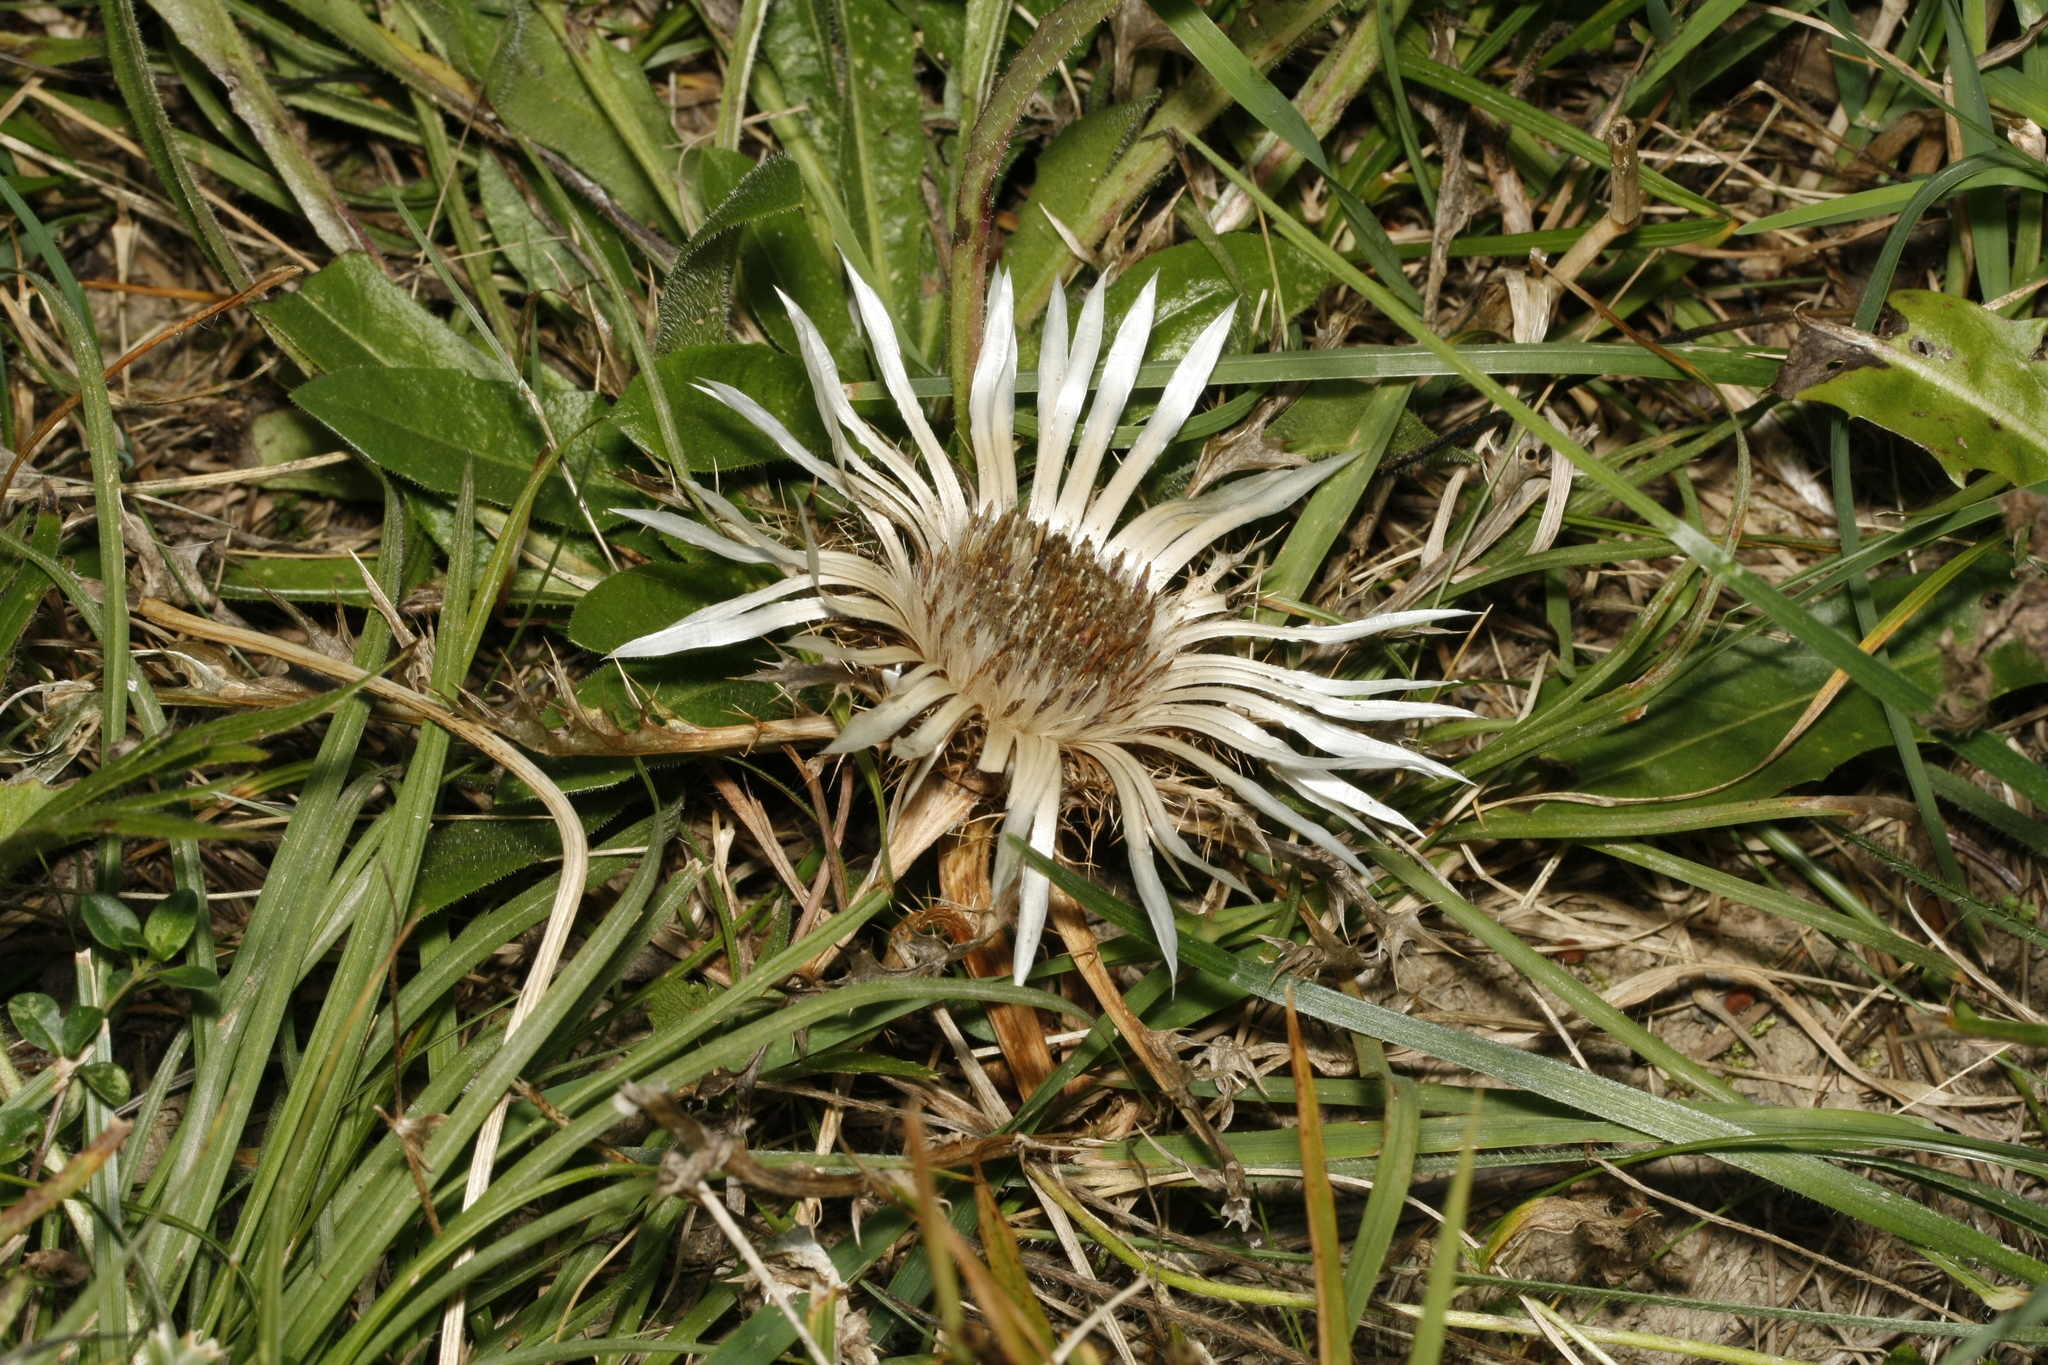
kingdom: Plantae
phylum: Tracheophyta
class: Magnoliopsida
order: Asterales
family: Asteraceae
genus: Carlina
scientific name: Carlina acaulis
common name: Stemless carline thistle
